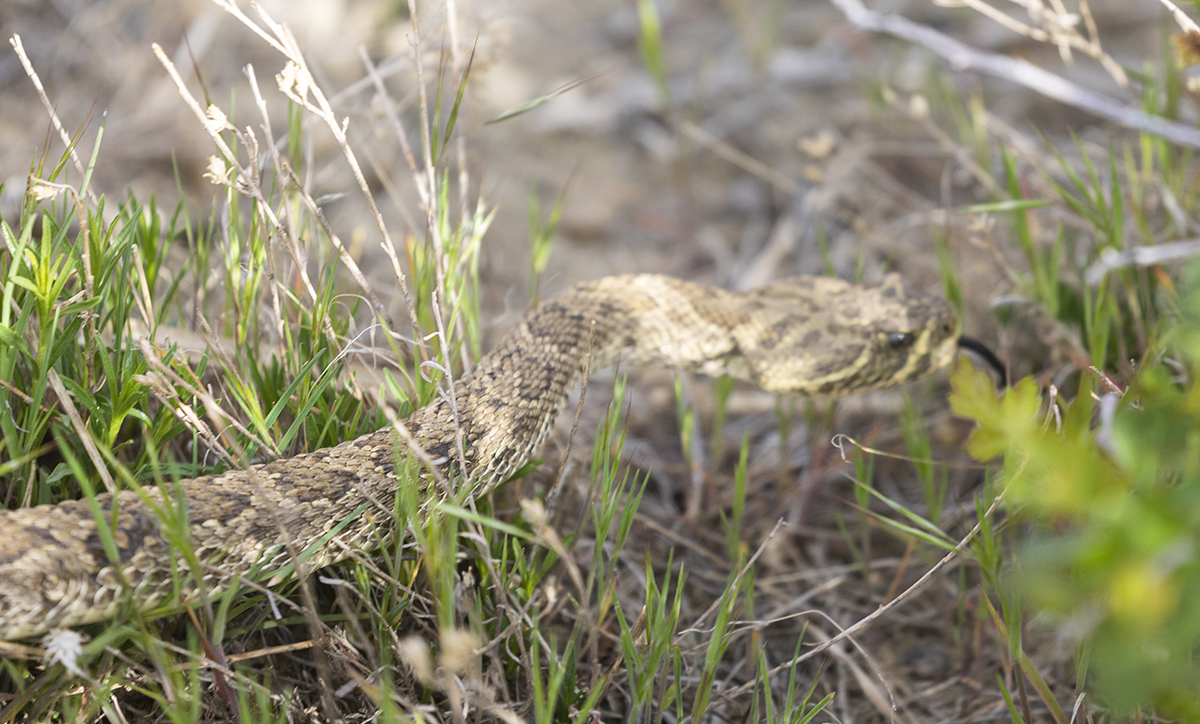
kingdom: Animalia
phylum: Chordata
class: Squamata
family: Viperidae
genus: Crotalus
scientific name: Crotalus viridis
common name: Prairie rattlesnake
